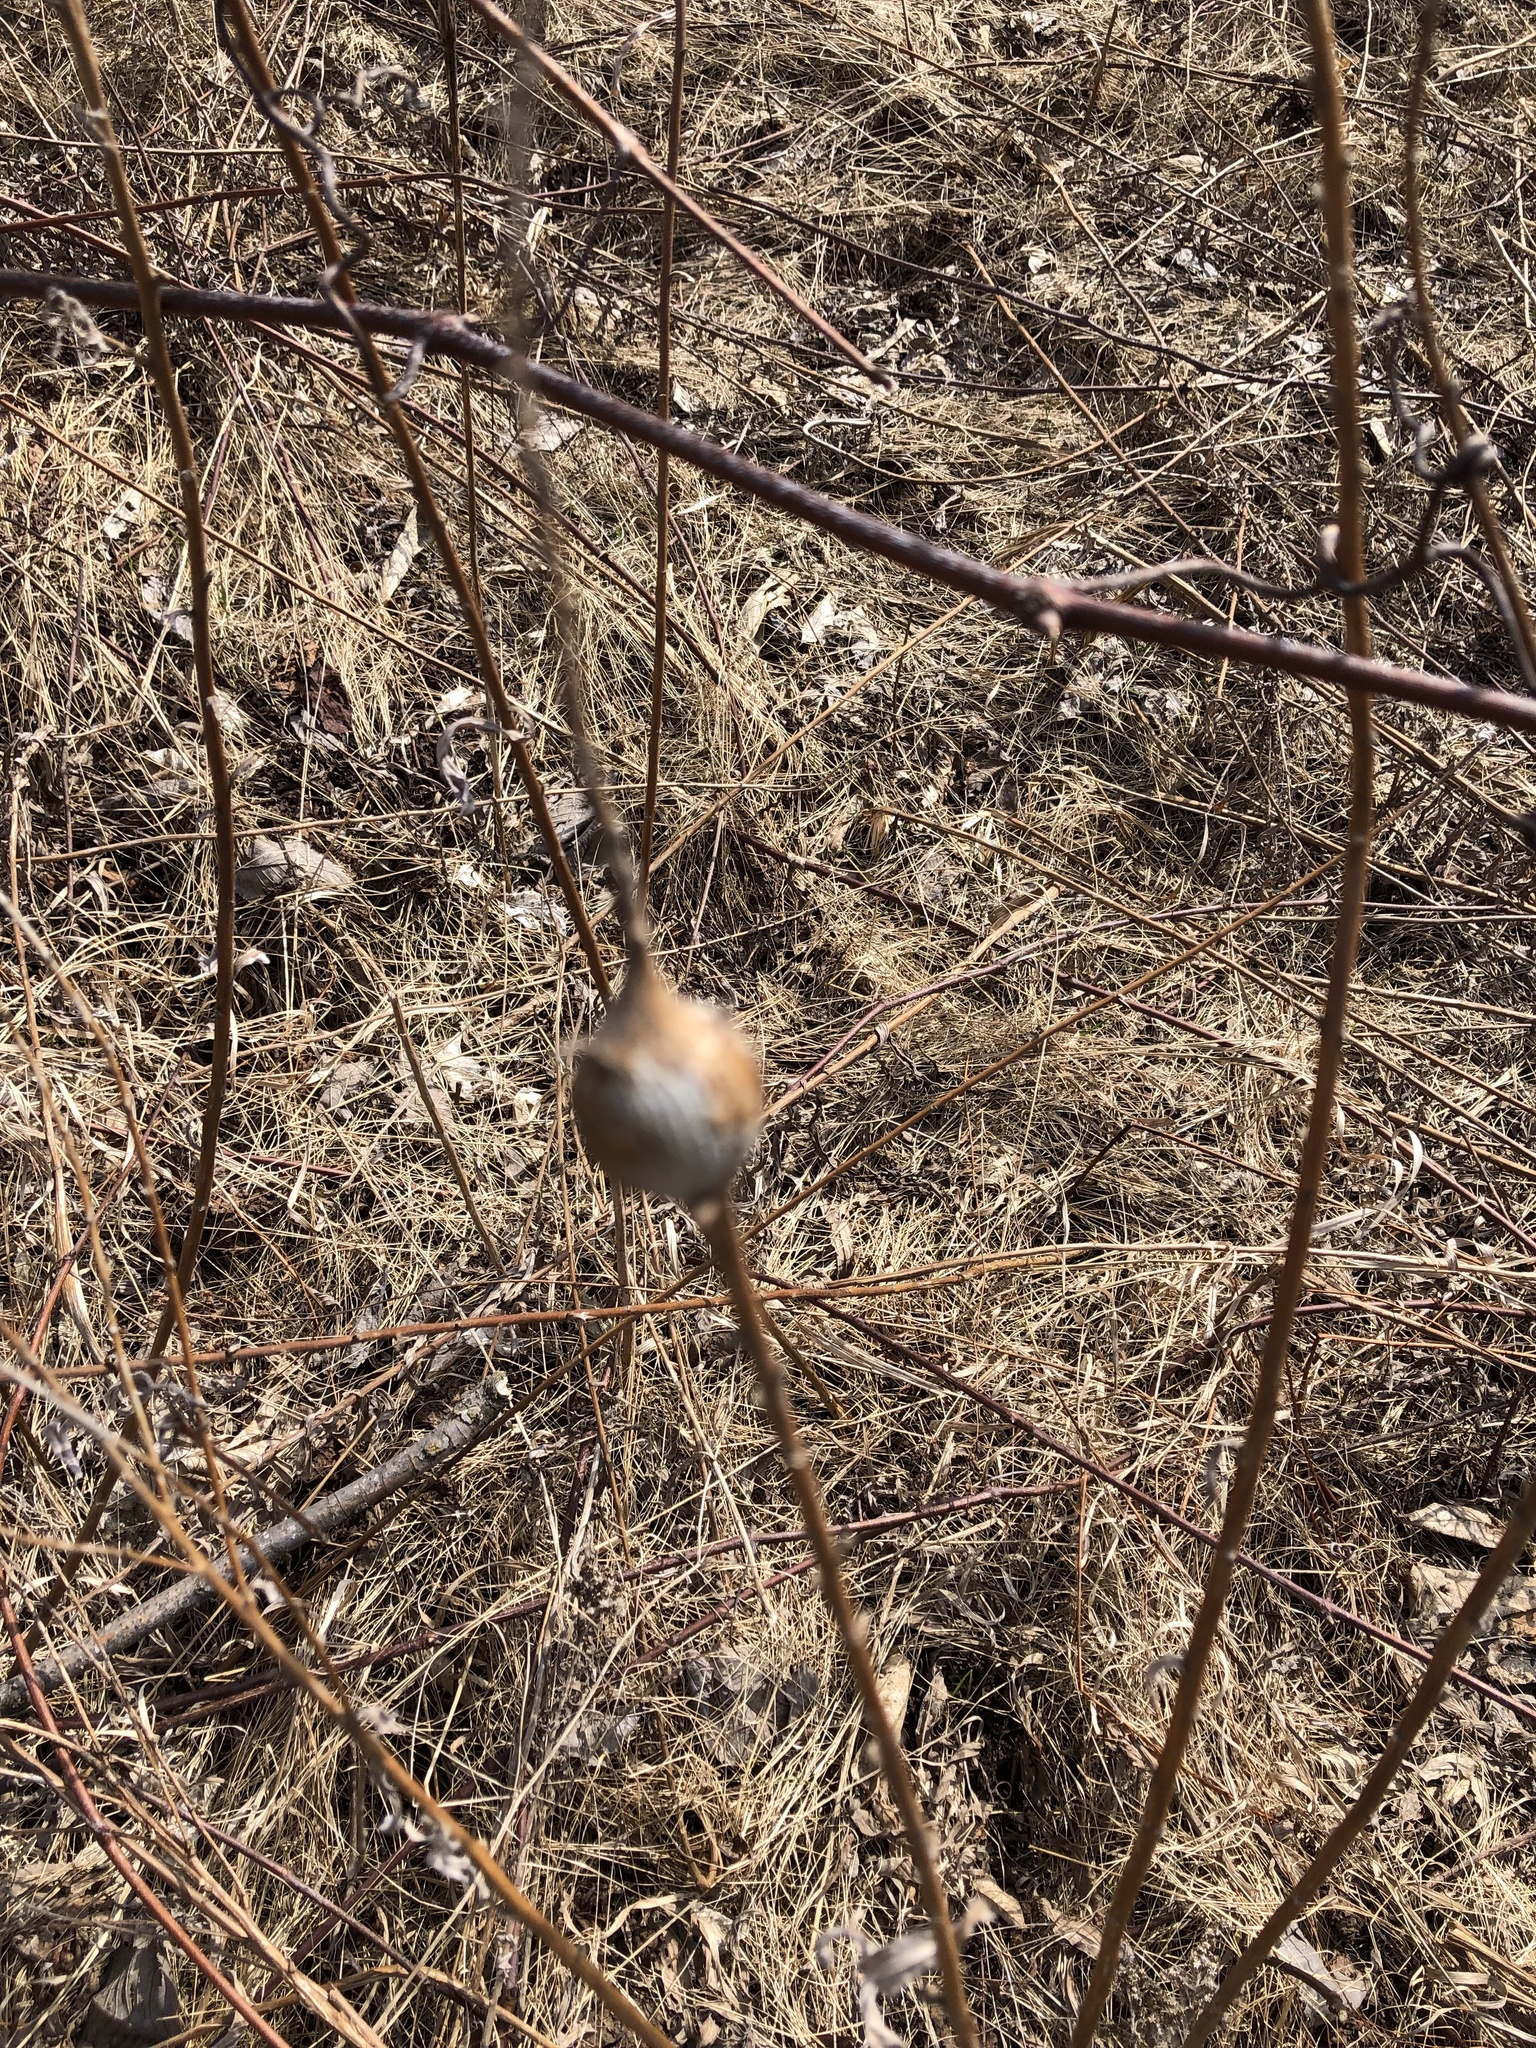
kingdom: Animalia
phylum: Arthropoda
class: Insecta
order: Diptera
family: Tephritidae
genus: Eurosta
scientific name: Eurosta solidaginis
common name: Goldenrod gall fly
